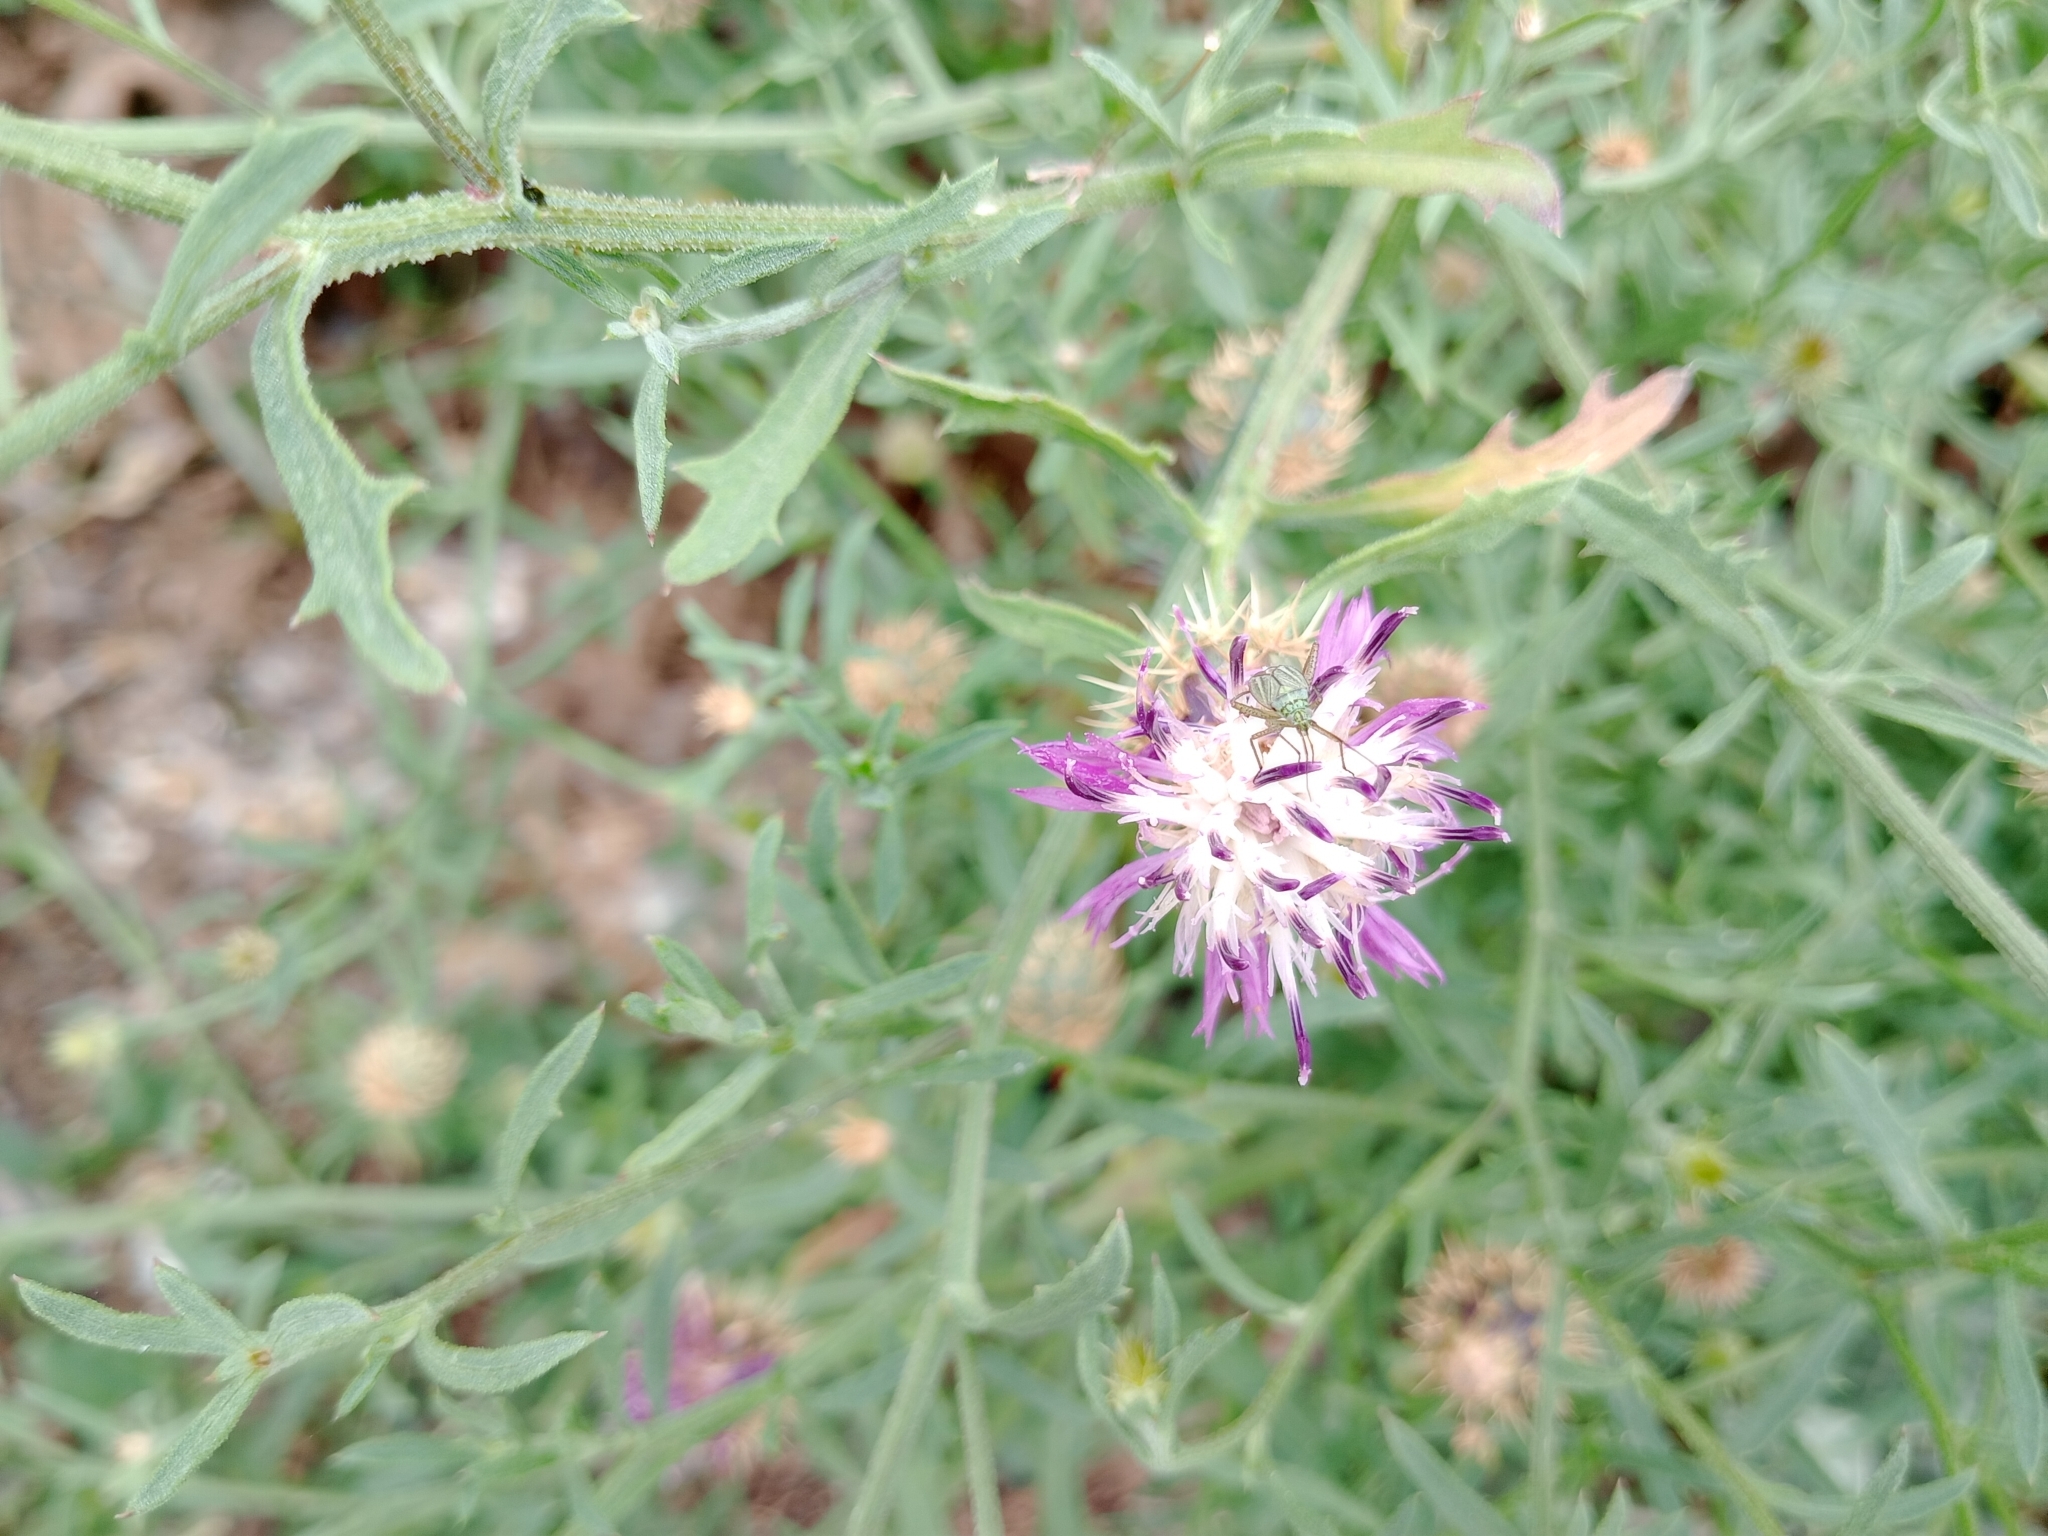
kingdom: Plantae
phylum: Tracheophyta
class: Magnoliopsida
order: Asterales
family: Asteraceae
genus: Centaurea
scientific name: Centaurea aspera
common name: Rough star-thistle
